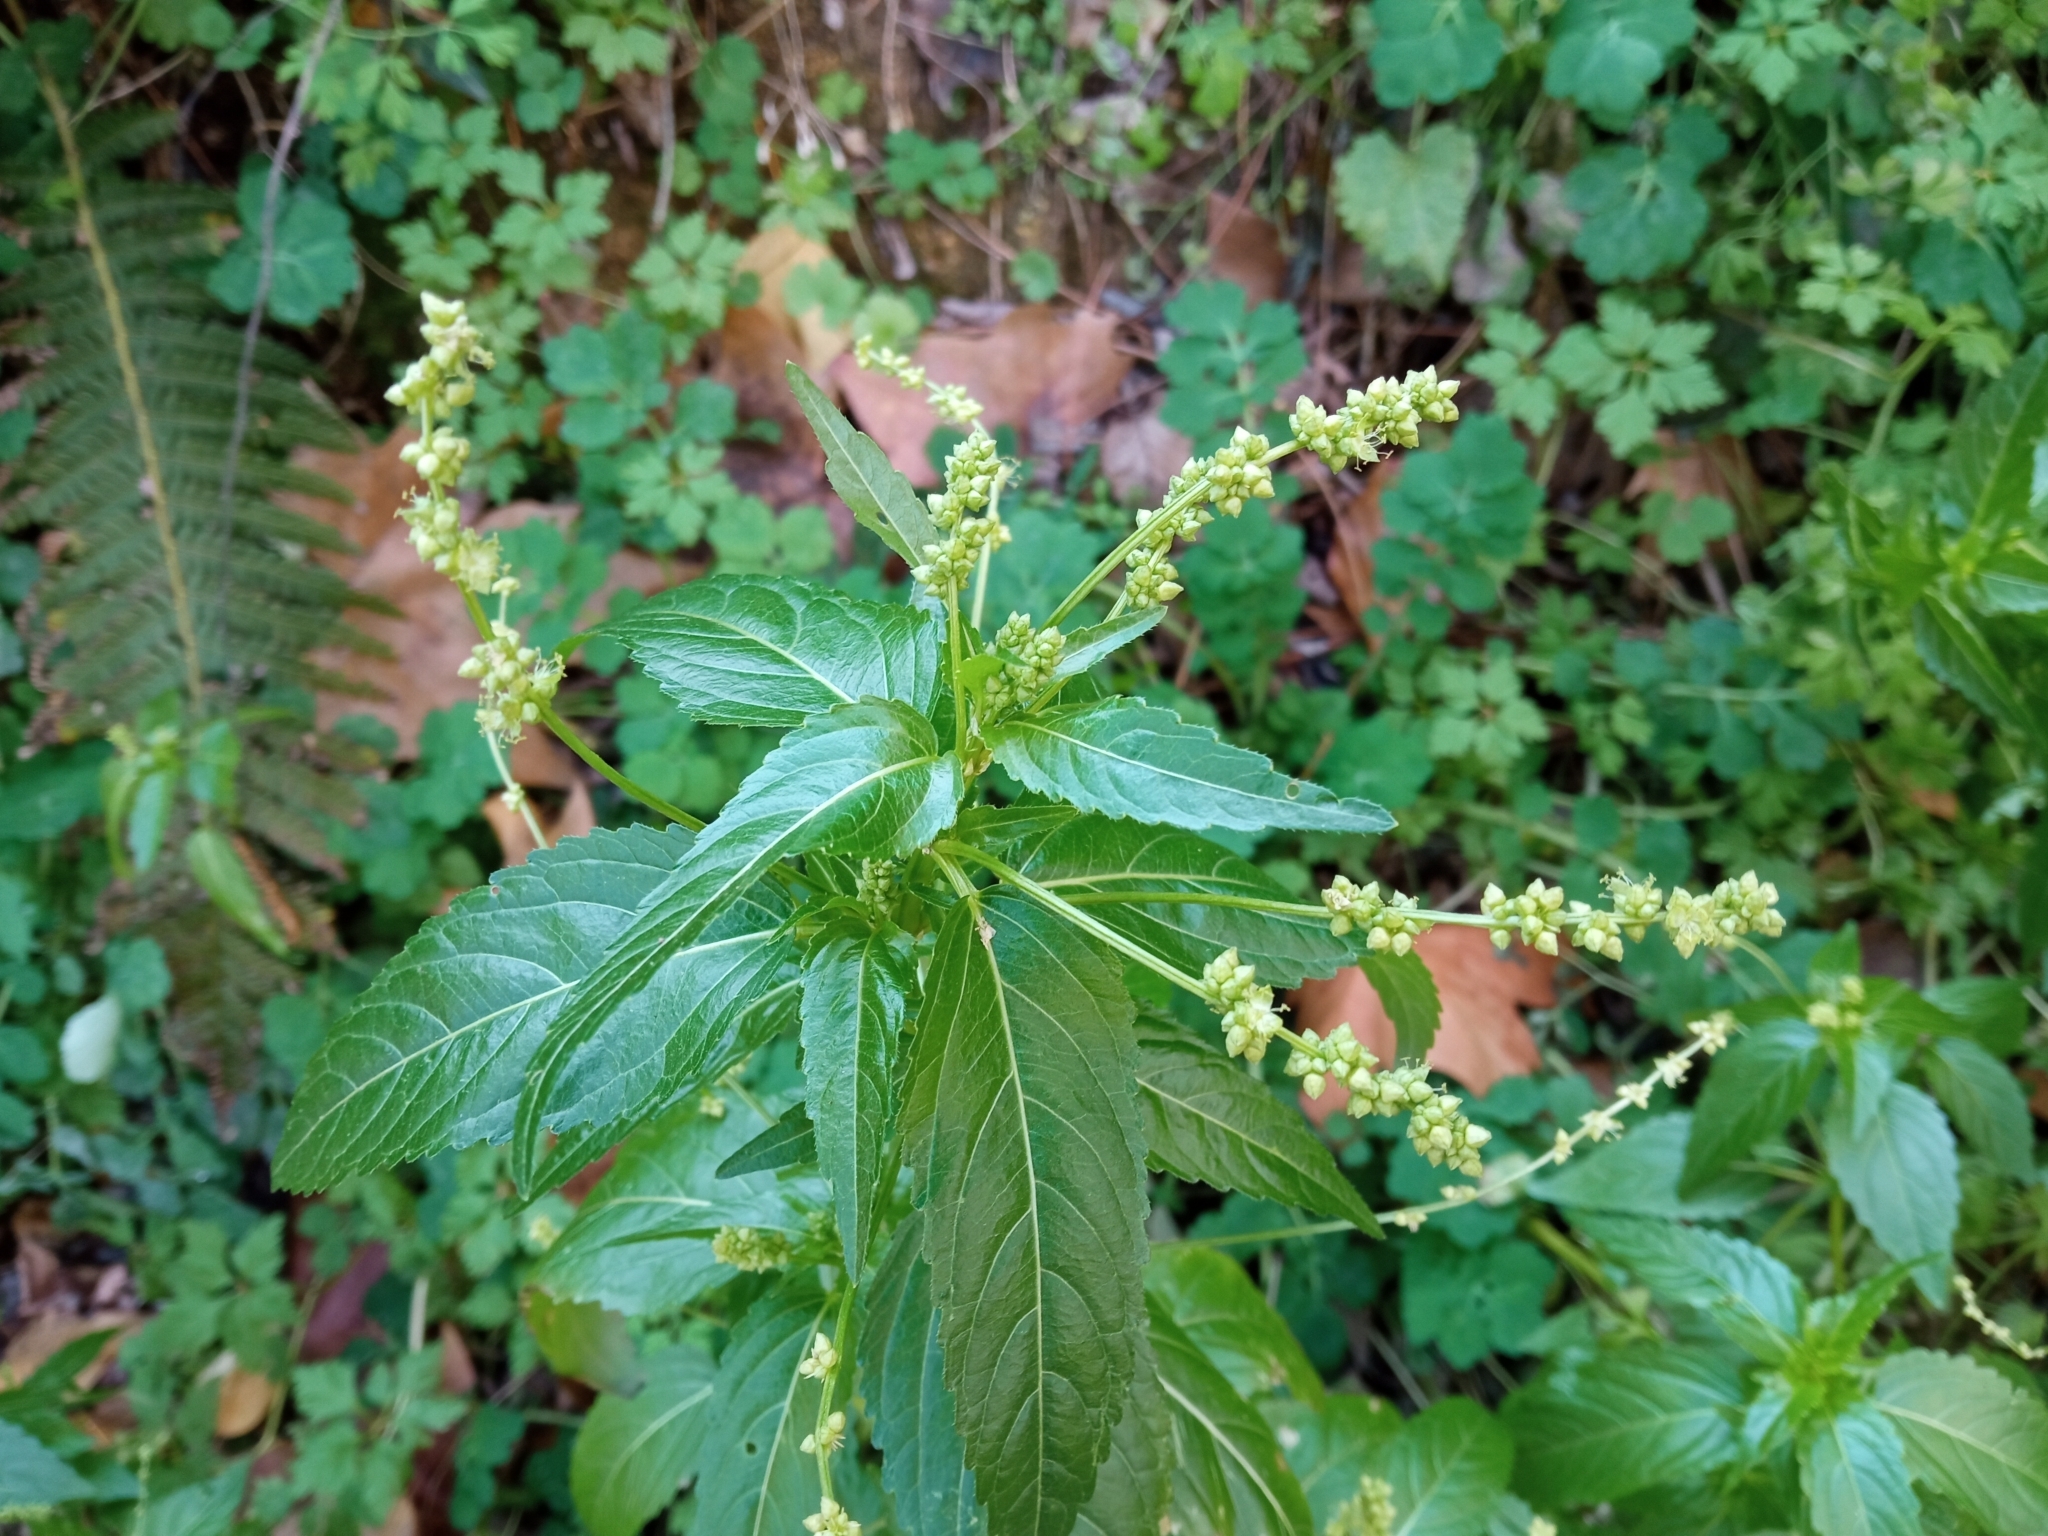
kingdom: Plantae
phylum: Tracheophyta
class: Magnoliopsida
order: Malpighiales
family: Euphorbiaceae
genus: Mercurialis
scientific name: Mercurialis annua
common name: Annual mercury
